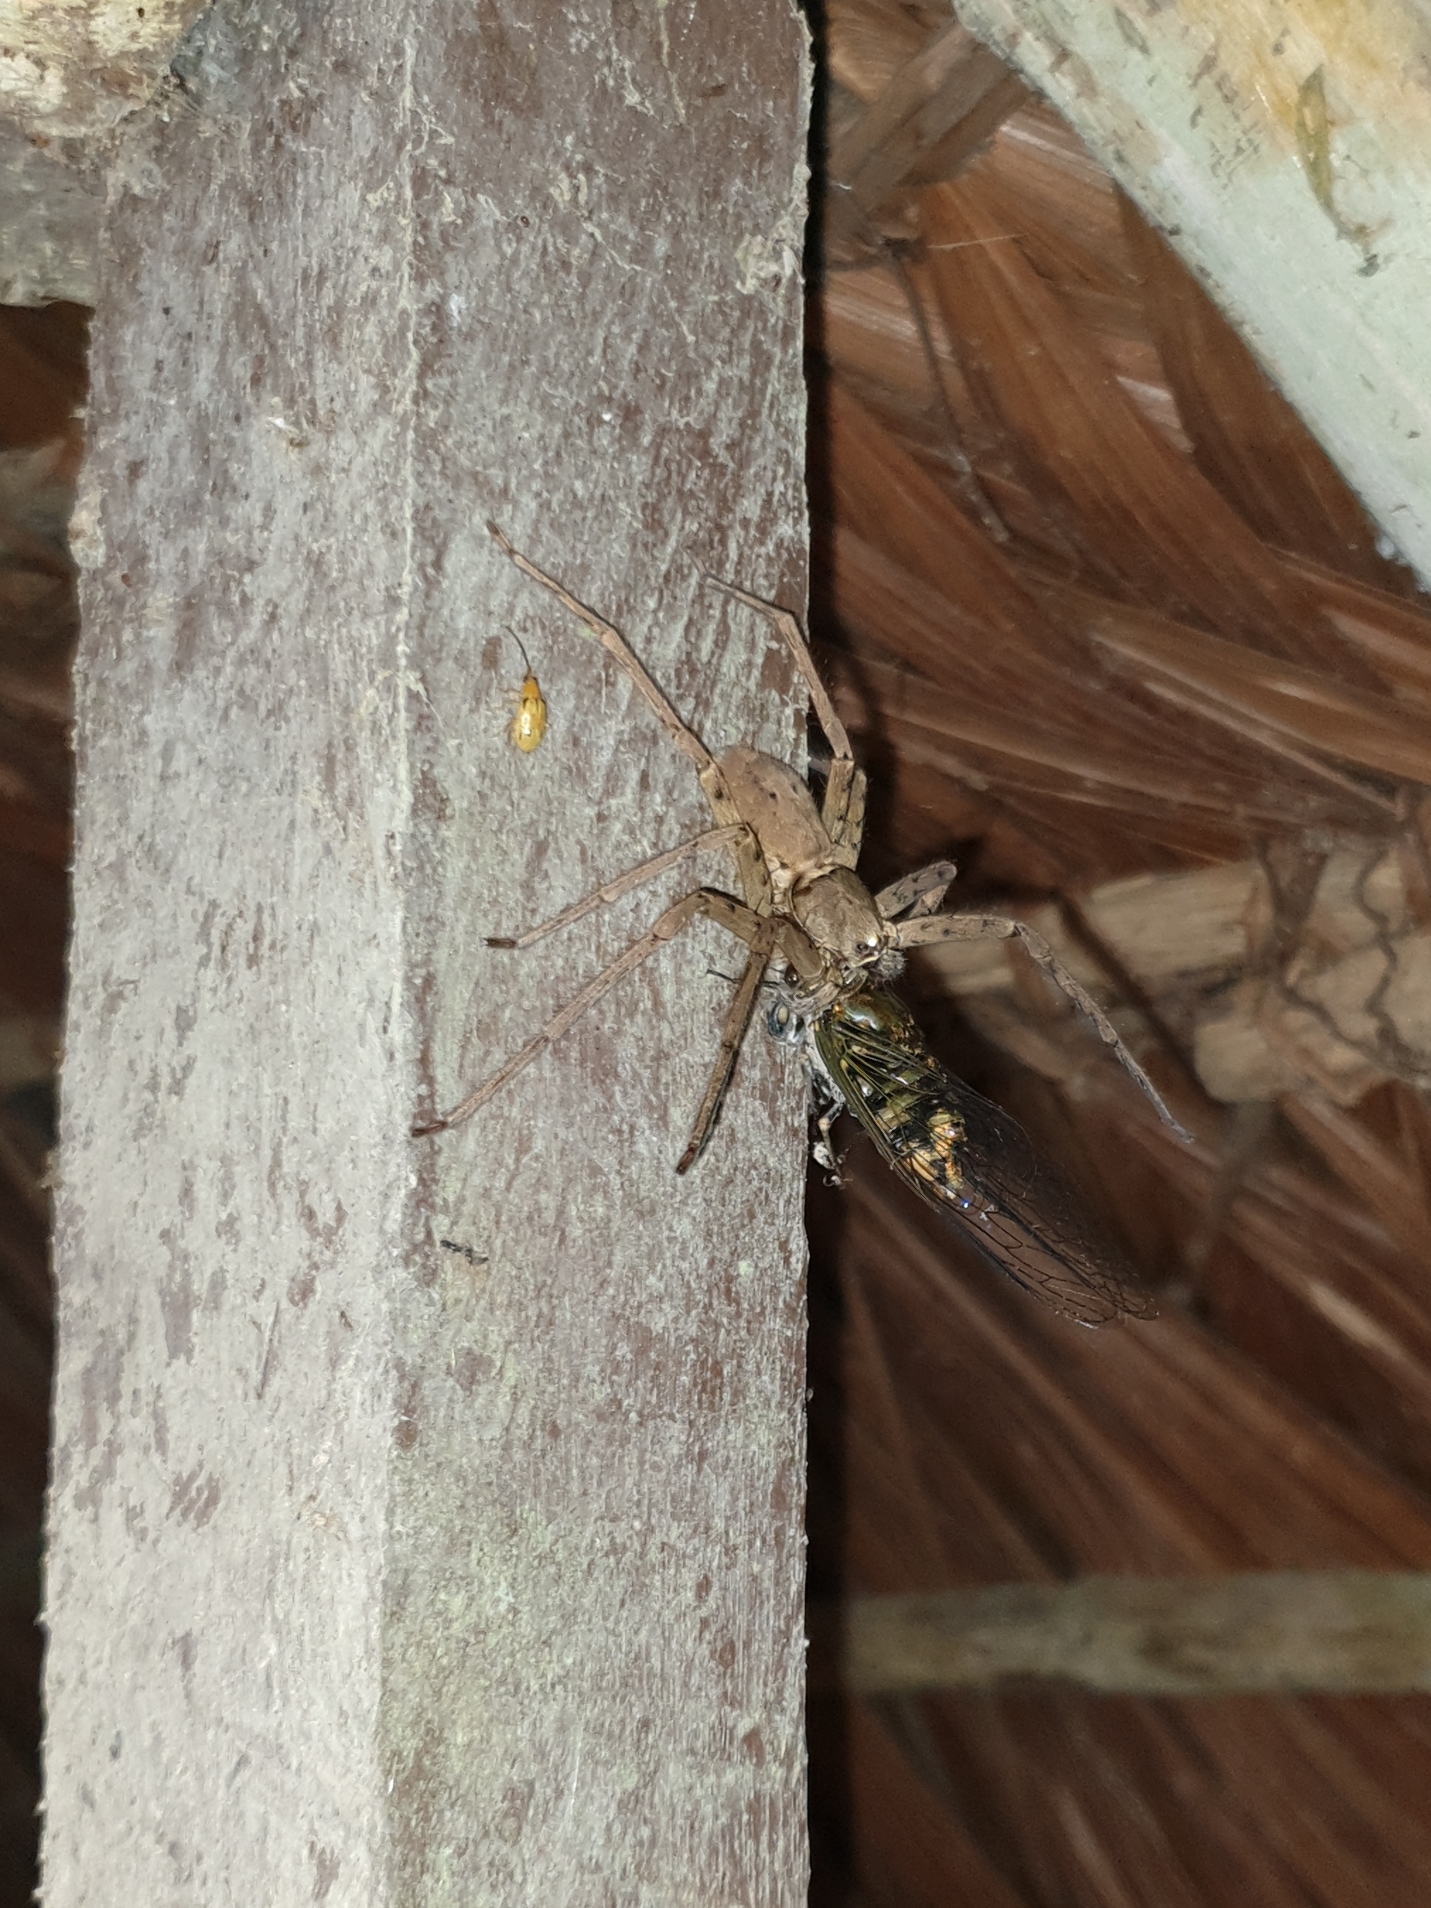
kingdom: Animalia
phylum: Arthropoda
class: Arachnida
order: Araneae
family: Sparassidae
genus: Heteropoda
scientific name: Heteropoda venatoria
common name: Huntsman spider
